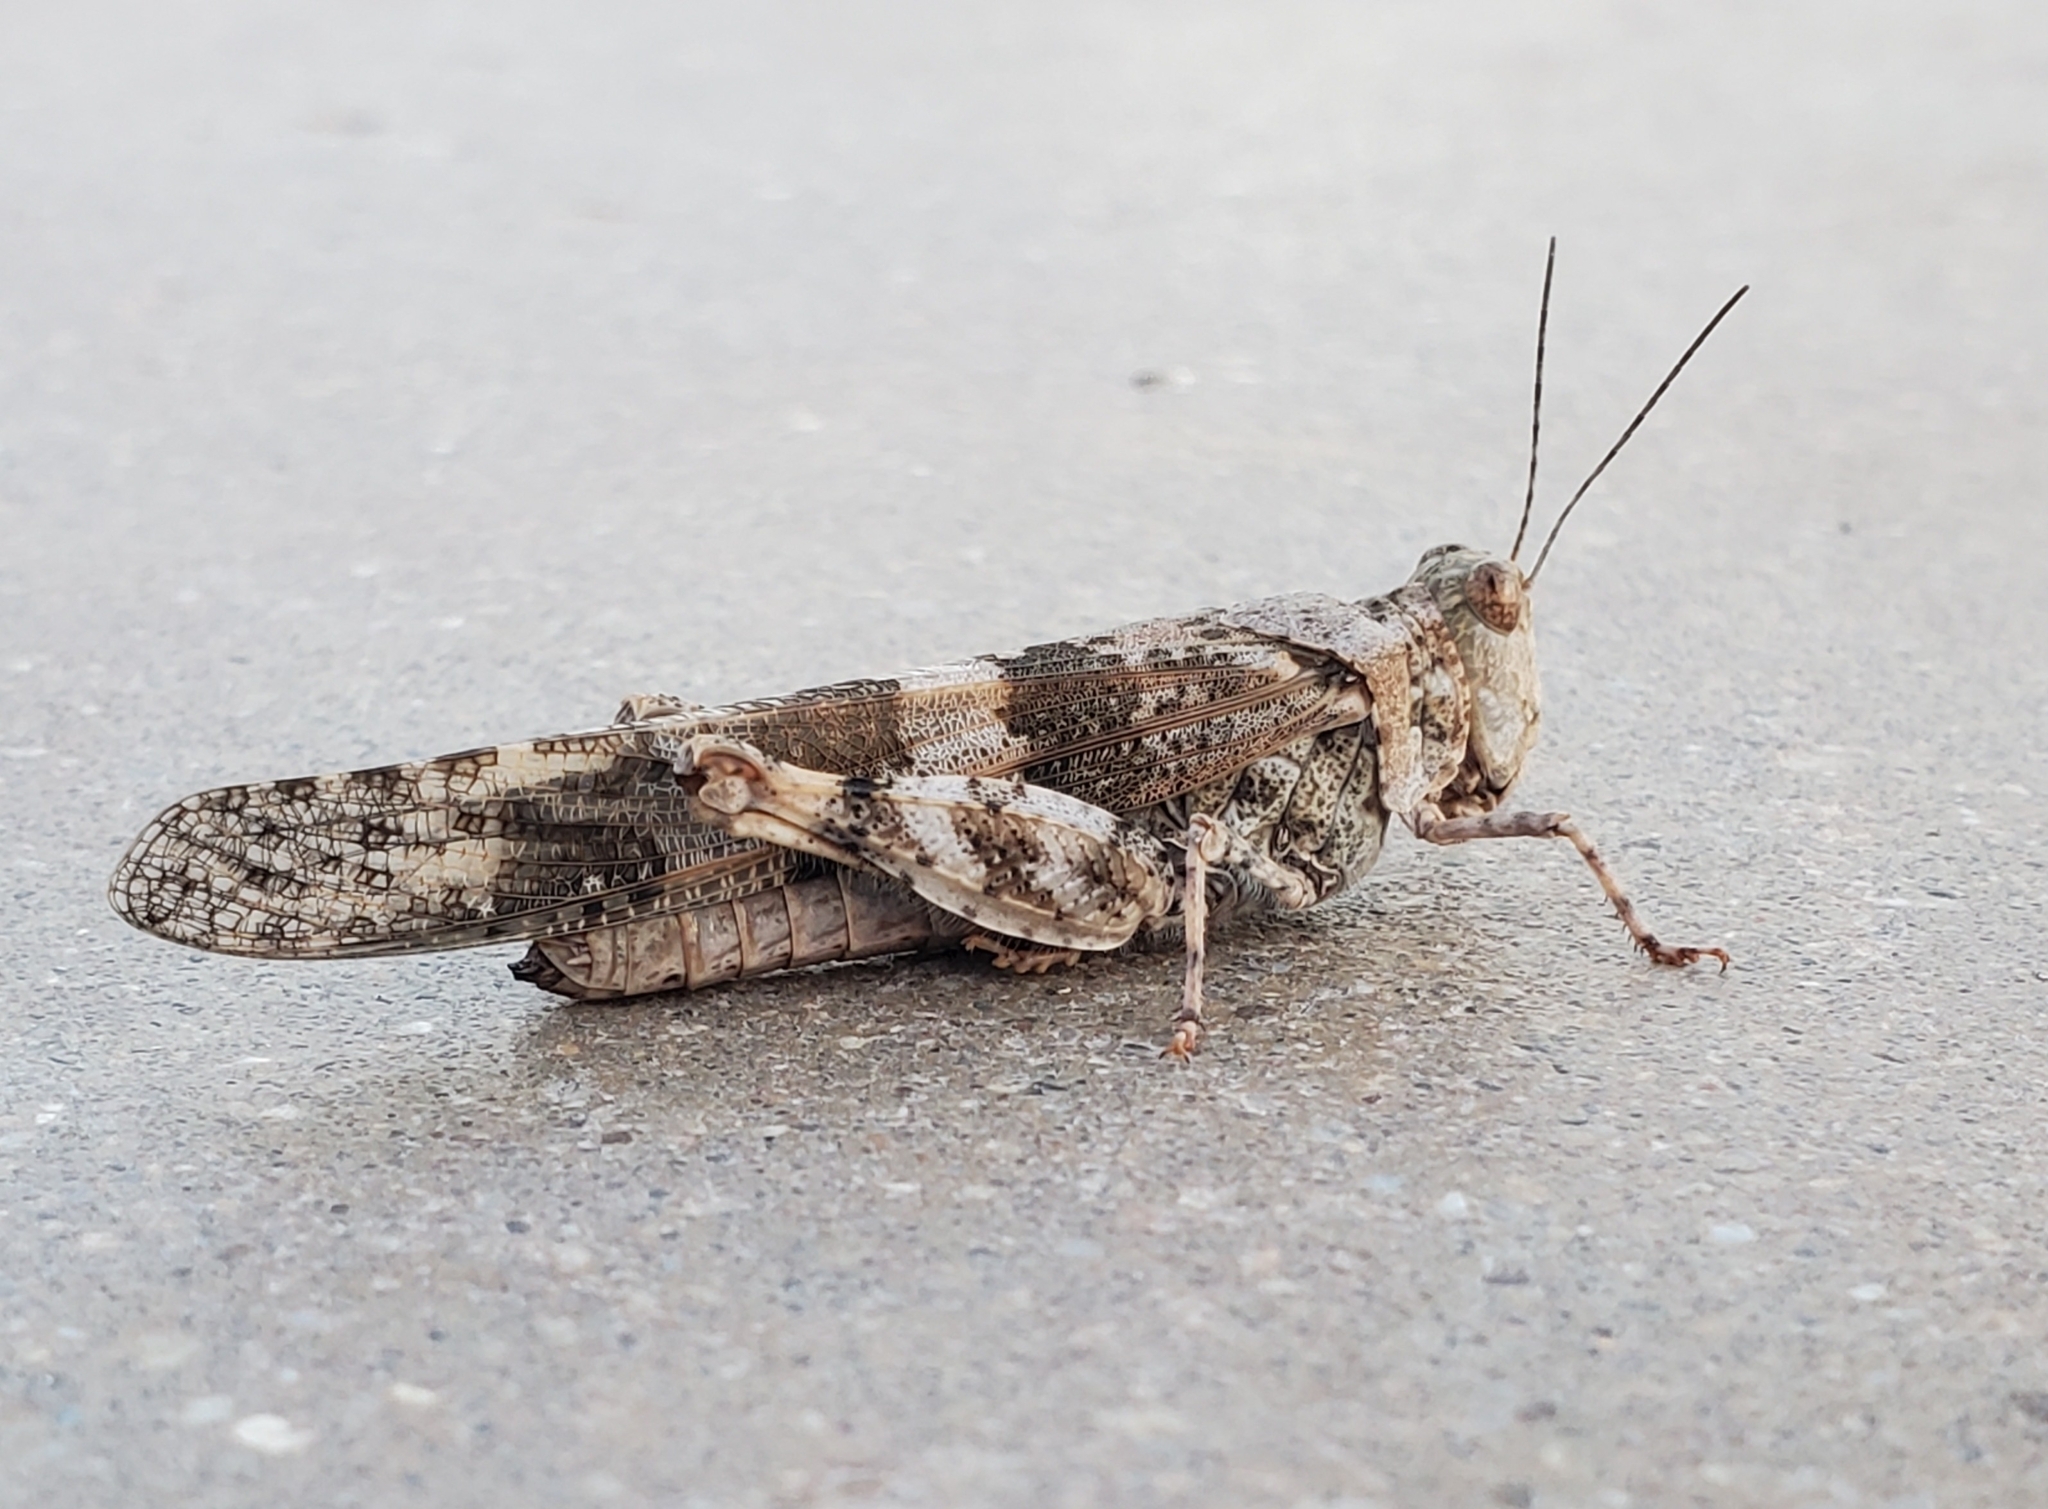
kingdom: Animalia
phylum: Arthropoda
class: Insecta
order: Orthoptera
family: Acrididae
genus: Trimerotropis
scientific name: Trimerotropis pallidipennis
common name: Pallid-winged grasshopper
